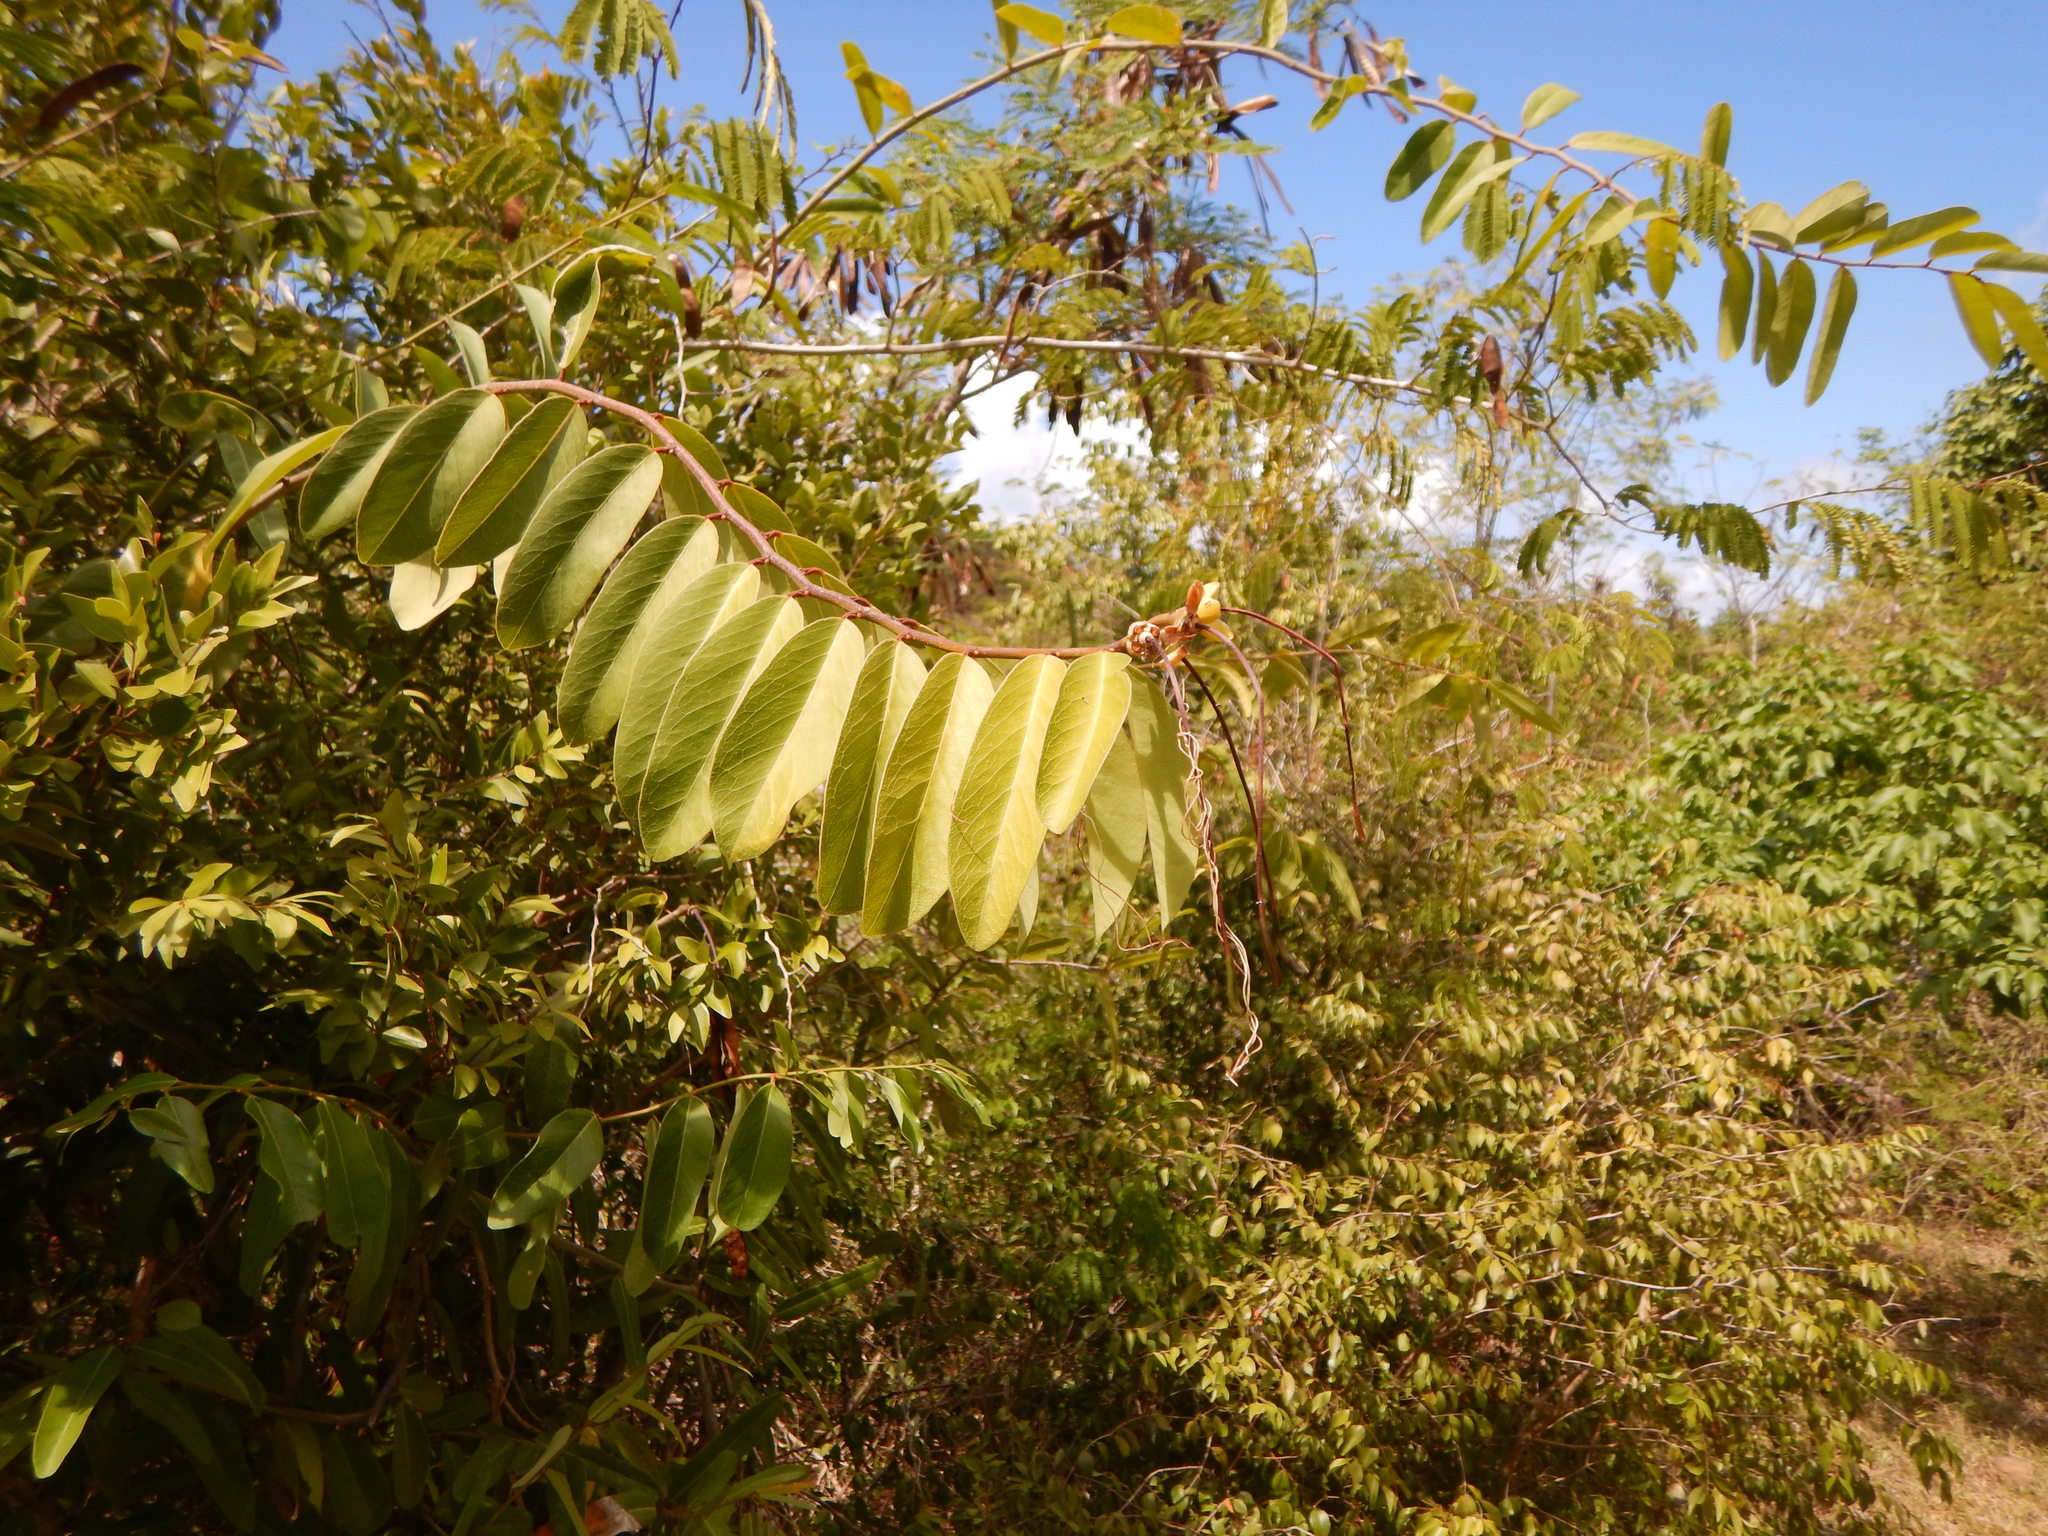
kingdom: Plantae
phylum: Tracheophyta
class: Magnoliopsida
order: Brassicales
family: Capparaceae
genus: Cynophalla
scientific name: Cynophalla flexuosa
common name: Capertree
